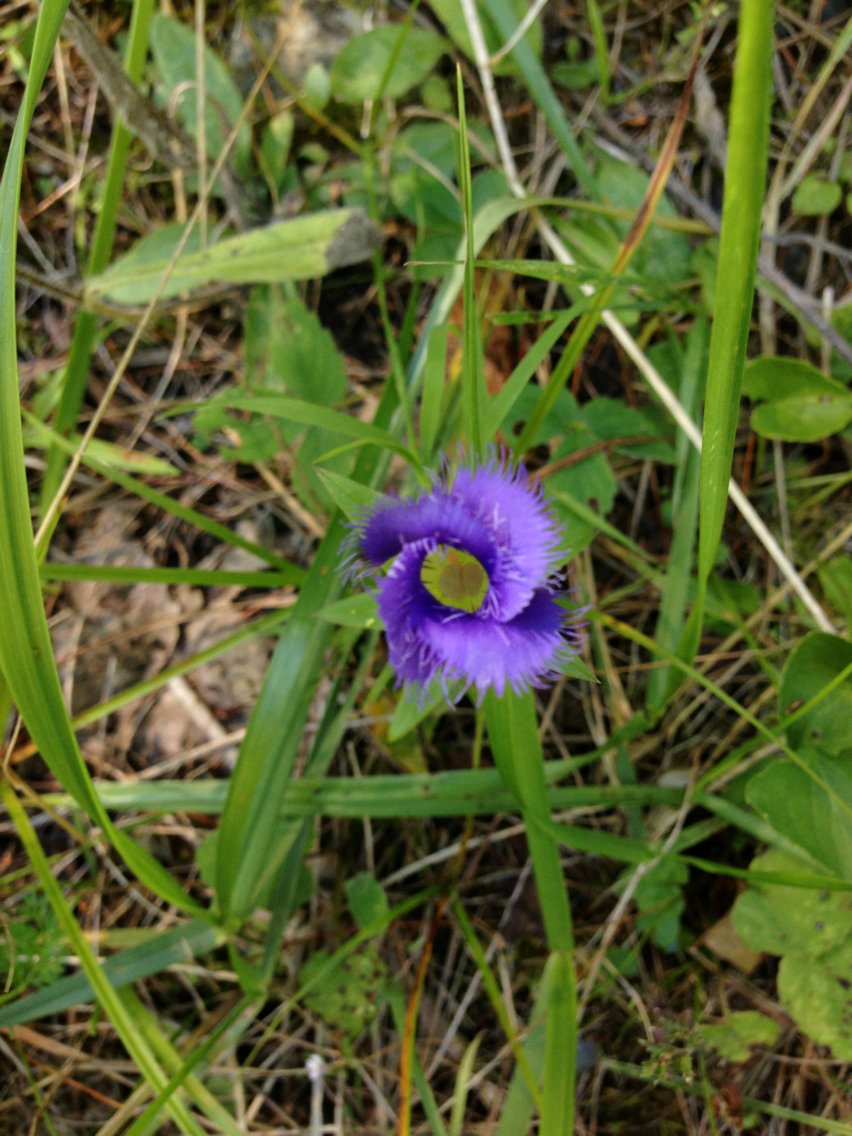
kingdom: Plantae
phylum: Tracheophyta
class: Magnoliopsida
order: Gentianales
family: Gentianaceae
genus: Gentianopsis
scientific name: Gentianopsis crinita
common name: Fringed-gentian
